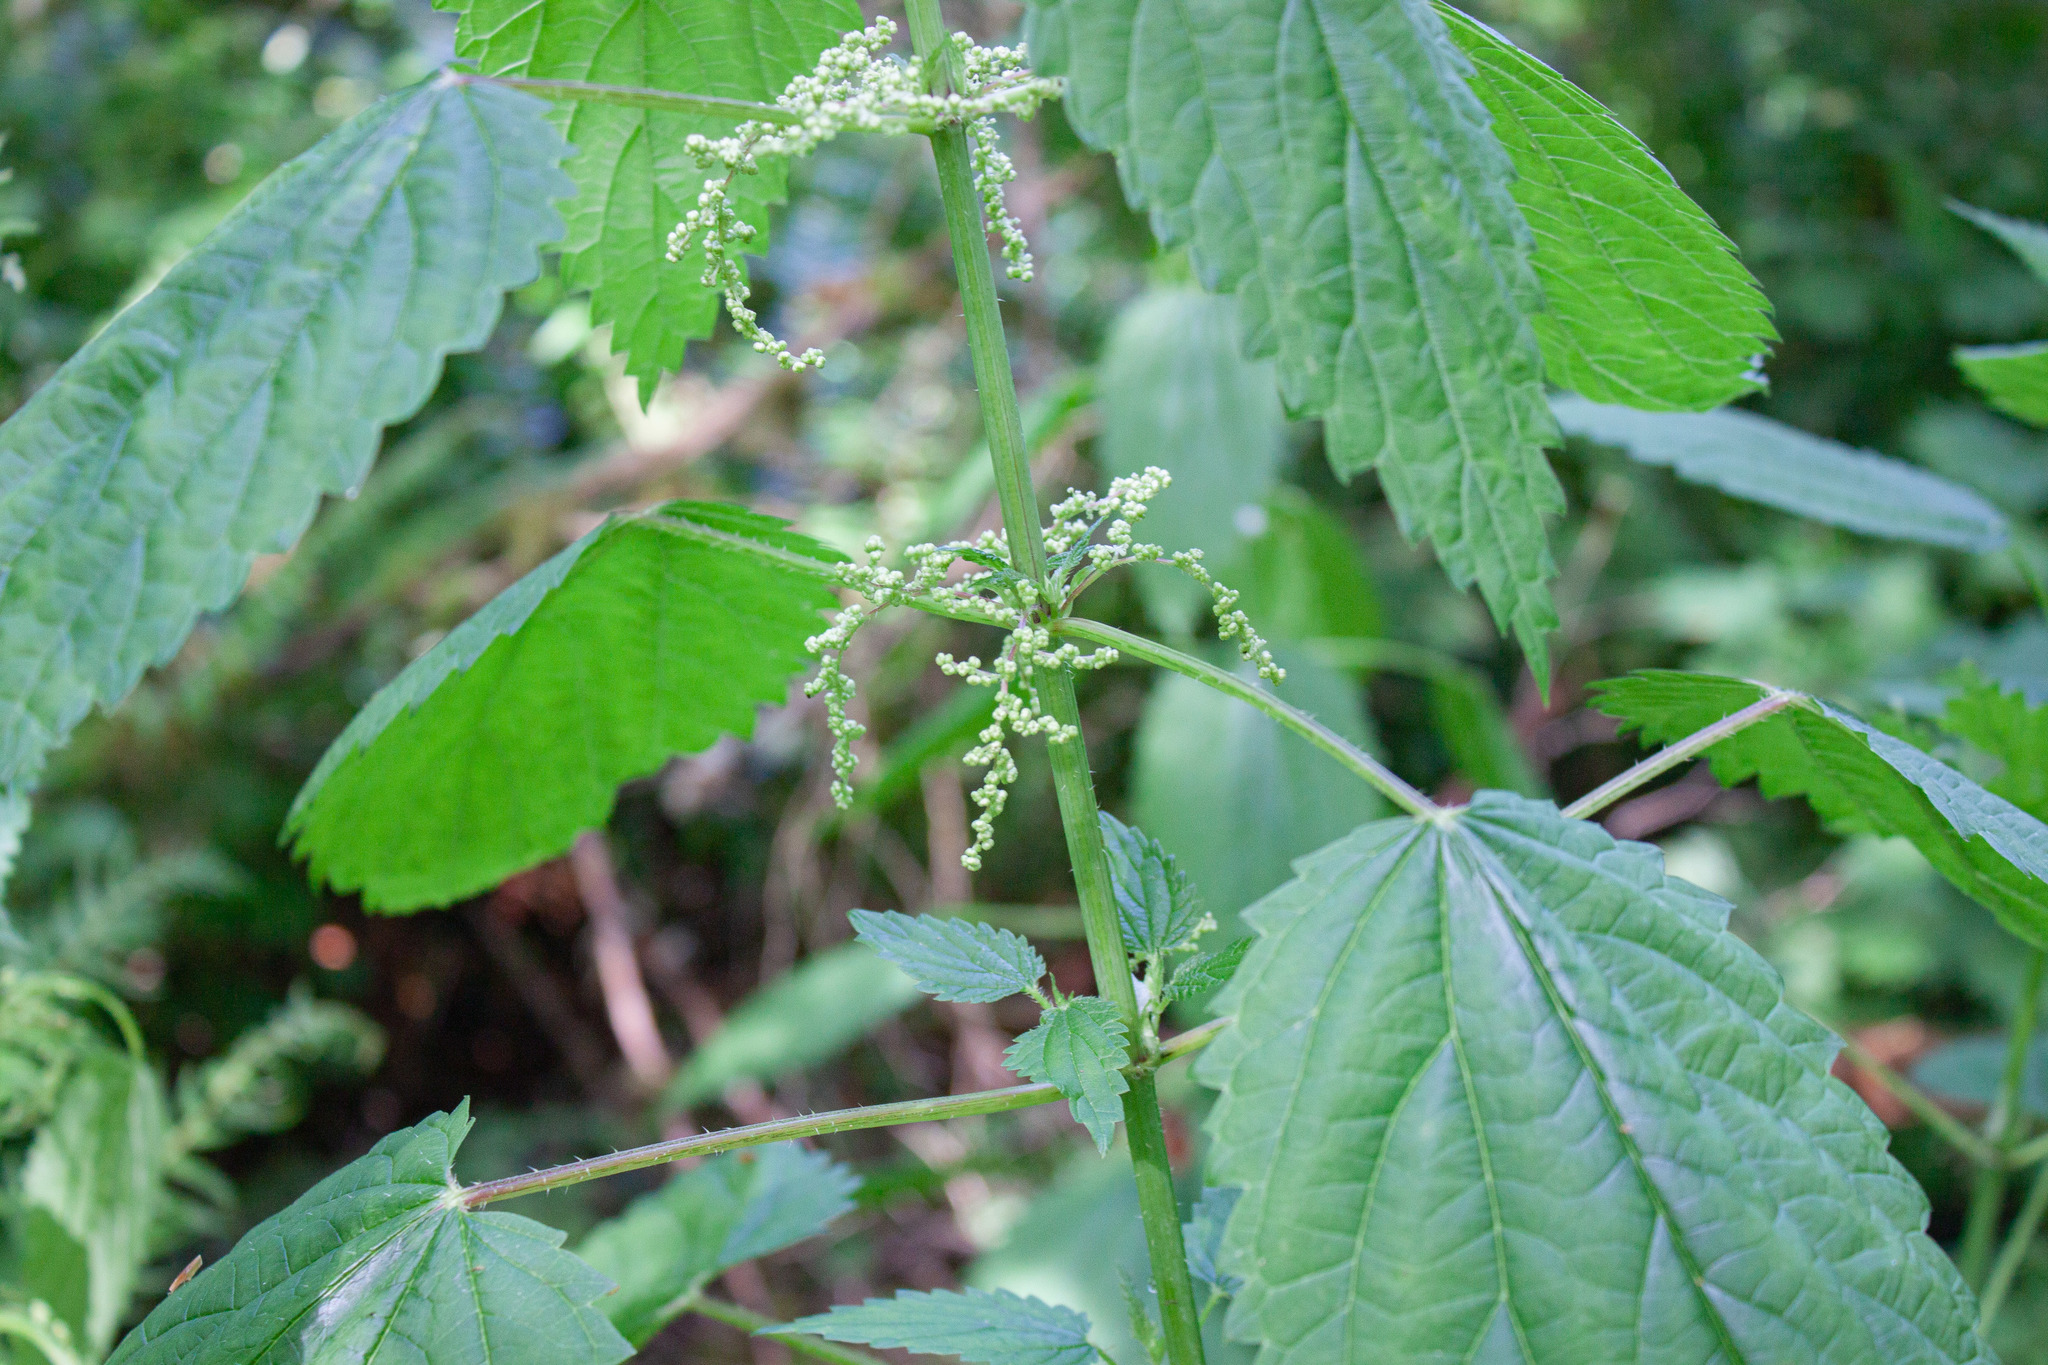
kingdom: Plantae
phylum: Tracheophyta
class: Magnoliopsida
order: Rosales
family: Urticaceae
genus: Urtica
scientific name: Urtica dioica
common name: Common nettle
